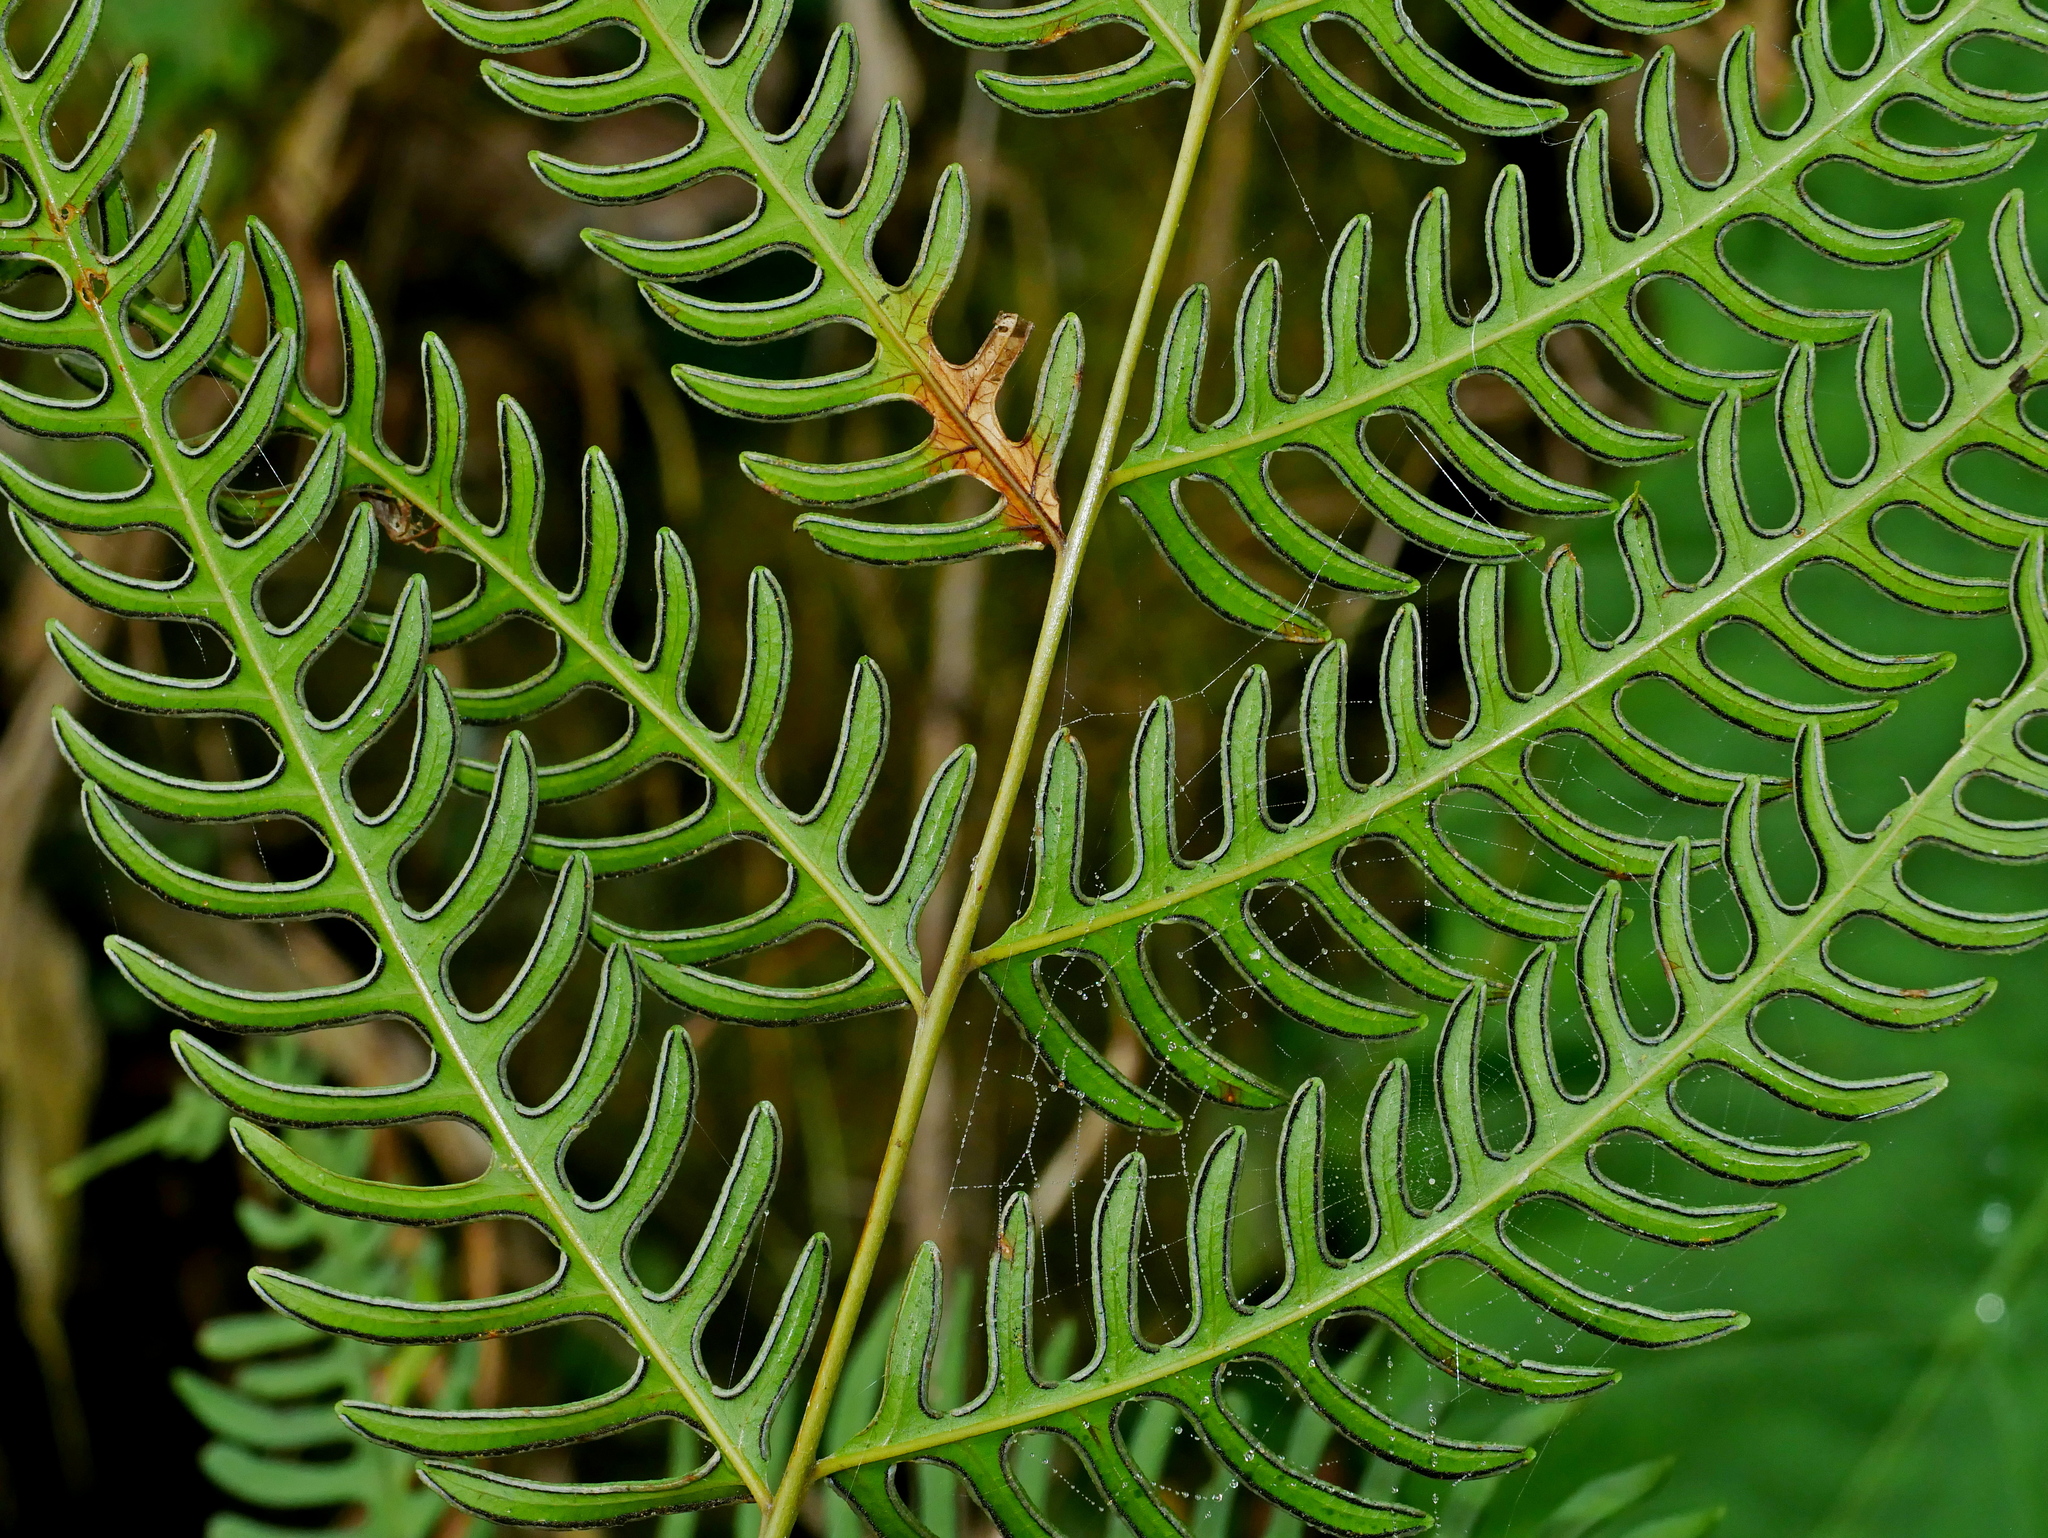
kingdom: Plantae
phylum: Tracheophyta
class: Polypodiopsida
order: Polypodiales
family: Pteridaceae
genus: Pteris
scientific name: Pteris biaurita
